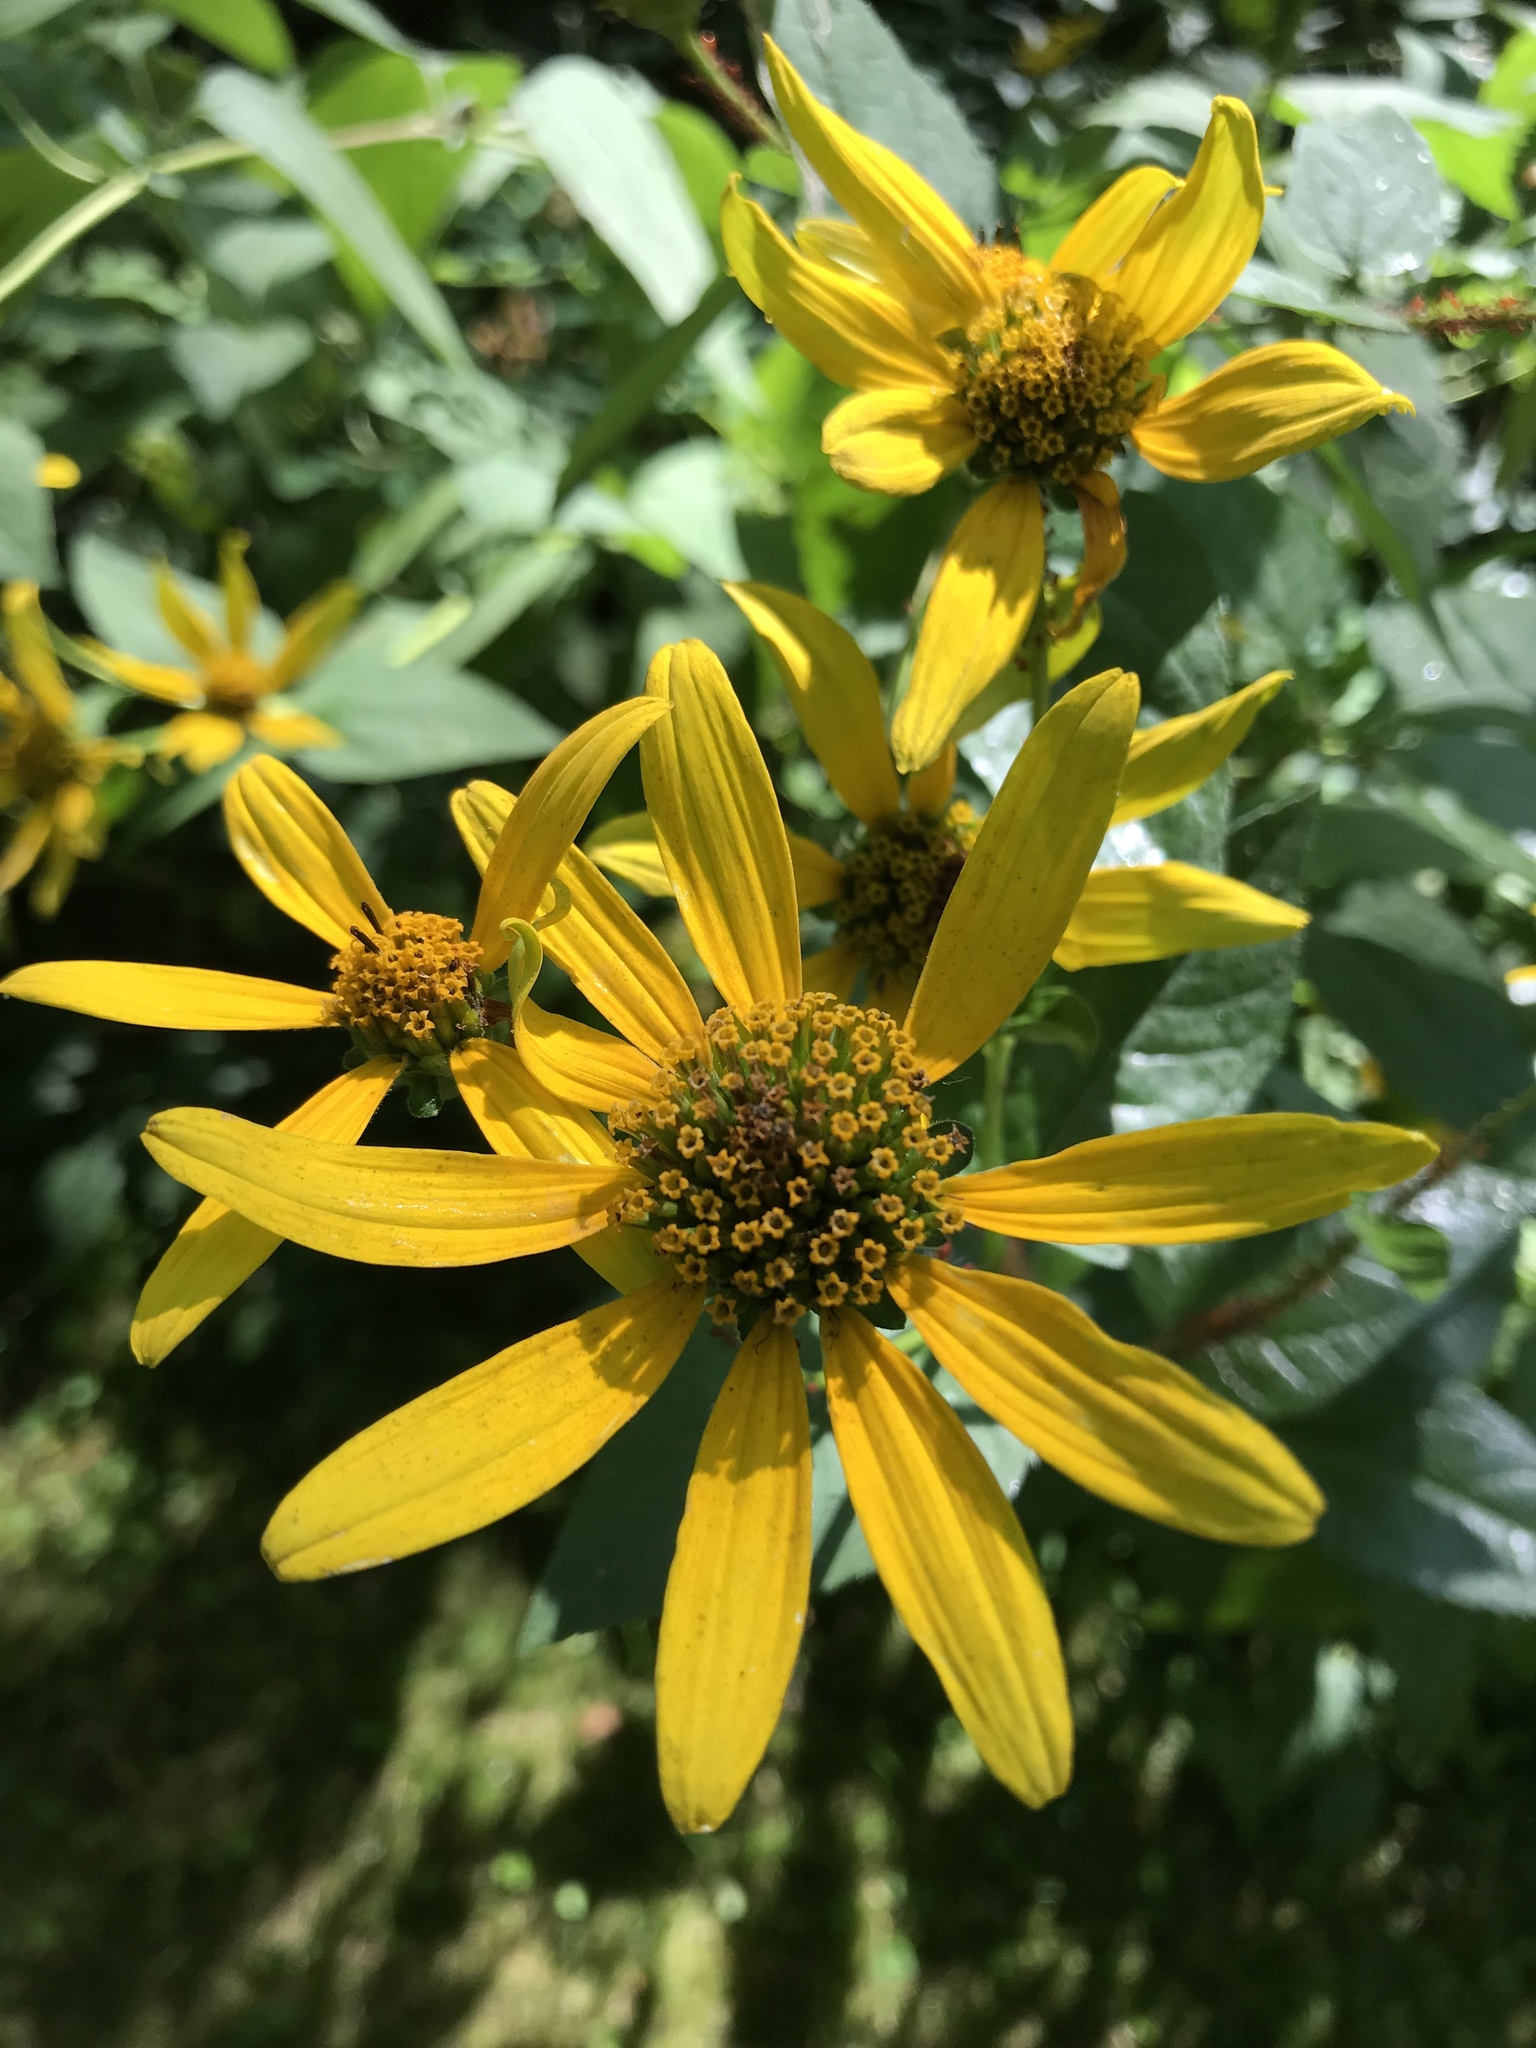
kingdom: Plantae
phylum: Tracheophyta
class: Magnoliopsida
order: Asterales
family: Asteraceae
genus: Heliopsis
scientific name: Heliopsis helianthoides
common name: False sunflower
